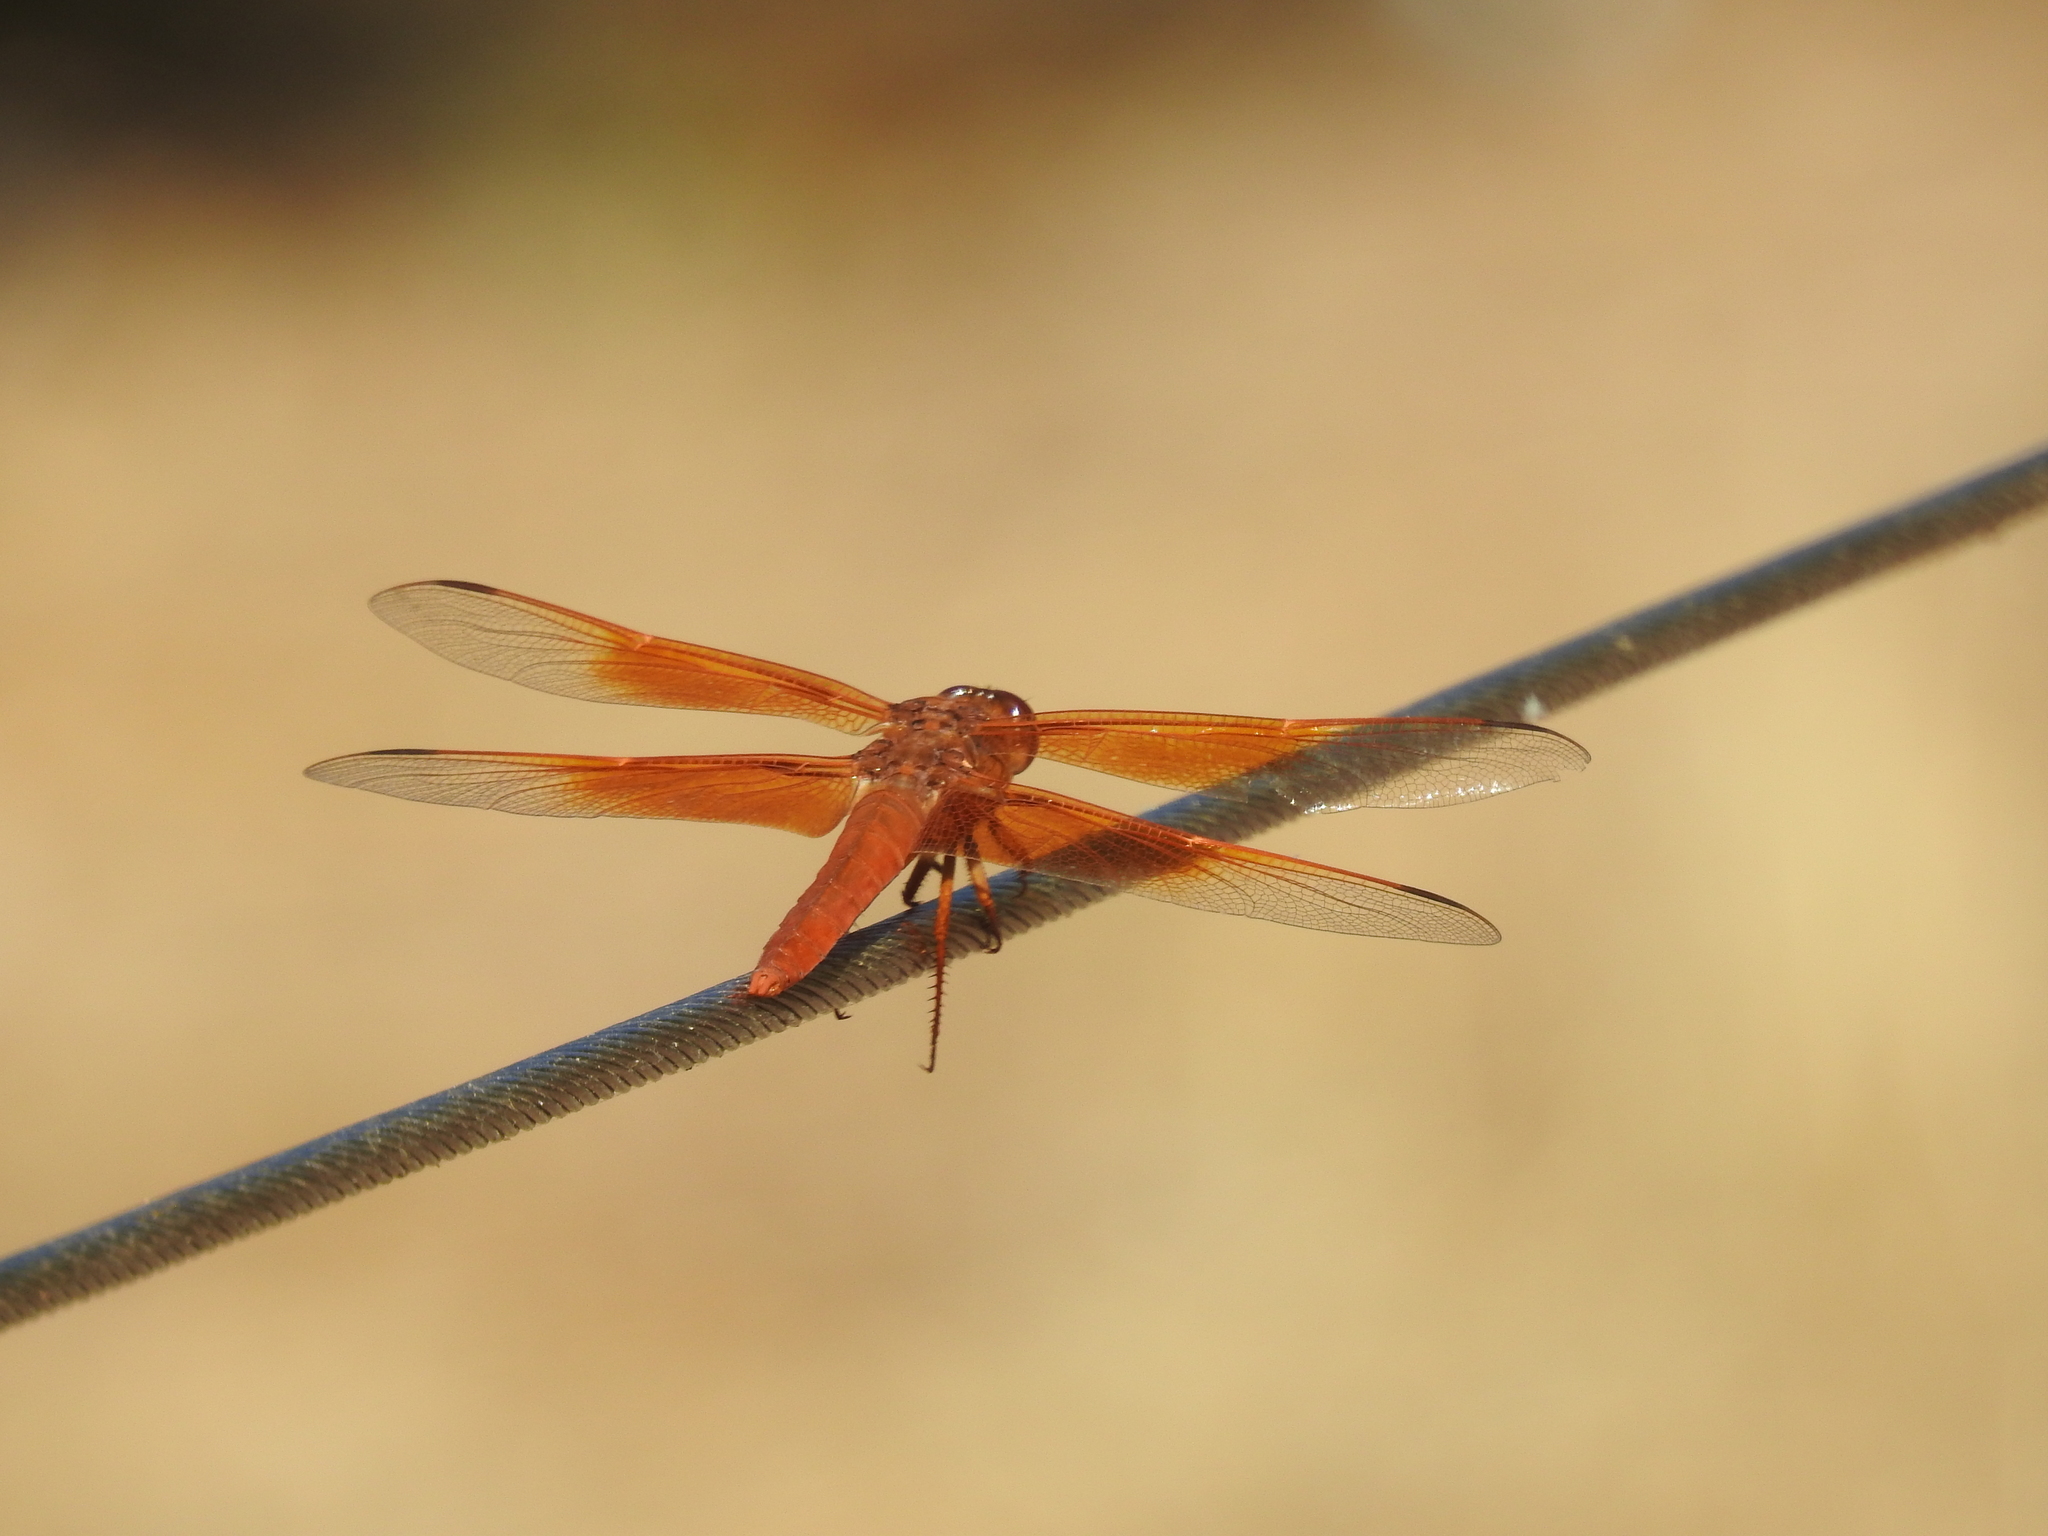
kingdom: Animalia
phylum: Arthropoda
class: Insecta
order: Odonata
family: Libellulidae
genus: Libellula
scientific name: Libellula saturata
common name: Flame skimmer
